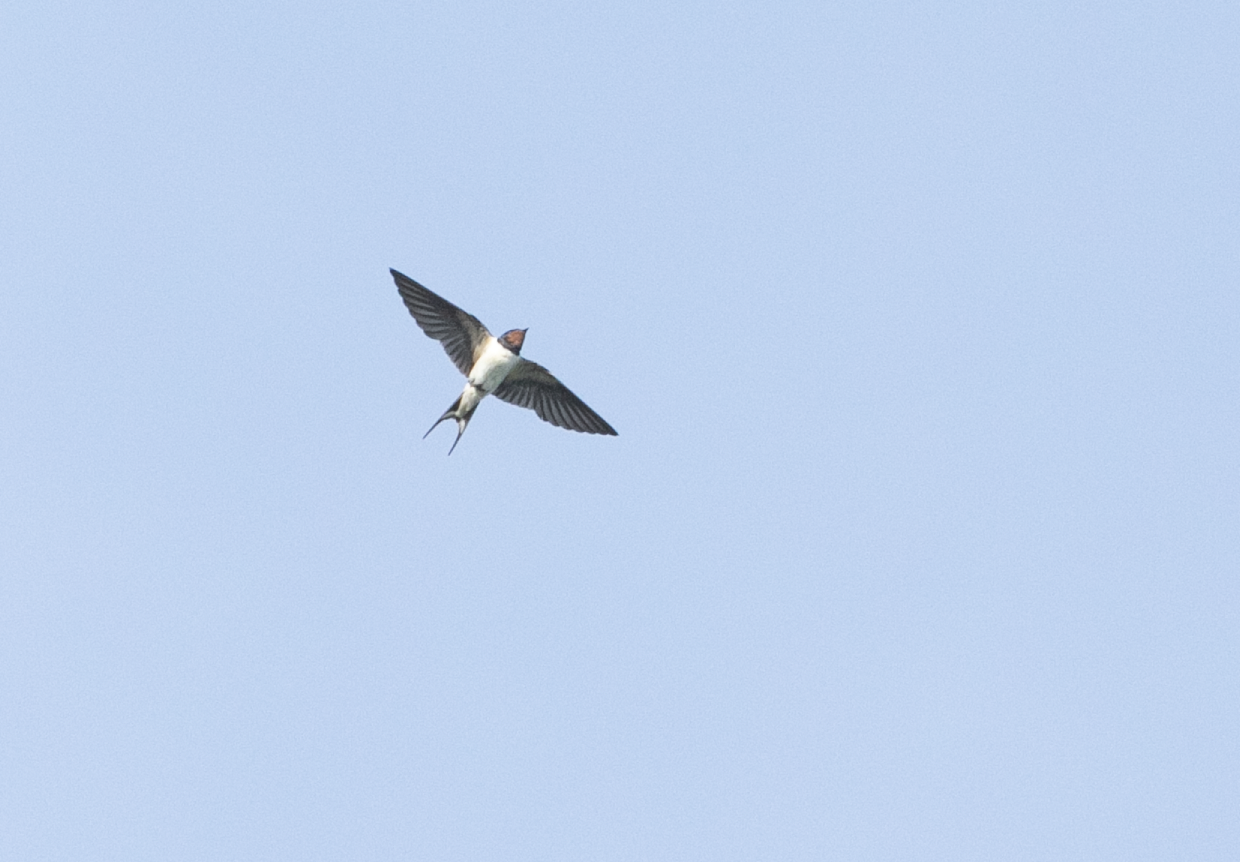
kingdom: Animalia
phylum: Chordata
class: Aves
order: Passeriformes
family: Hirundinidae
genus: Hirundo
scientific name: Hirundo rustica
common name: Barn swallow
